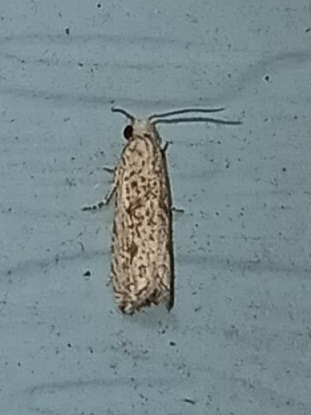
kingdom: Animalia
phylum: Arthropoda
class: Insecta
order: Lepidoptera
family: Tortricidae
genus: Bactra
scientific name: Bactra verutana
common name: Javelin moth
